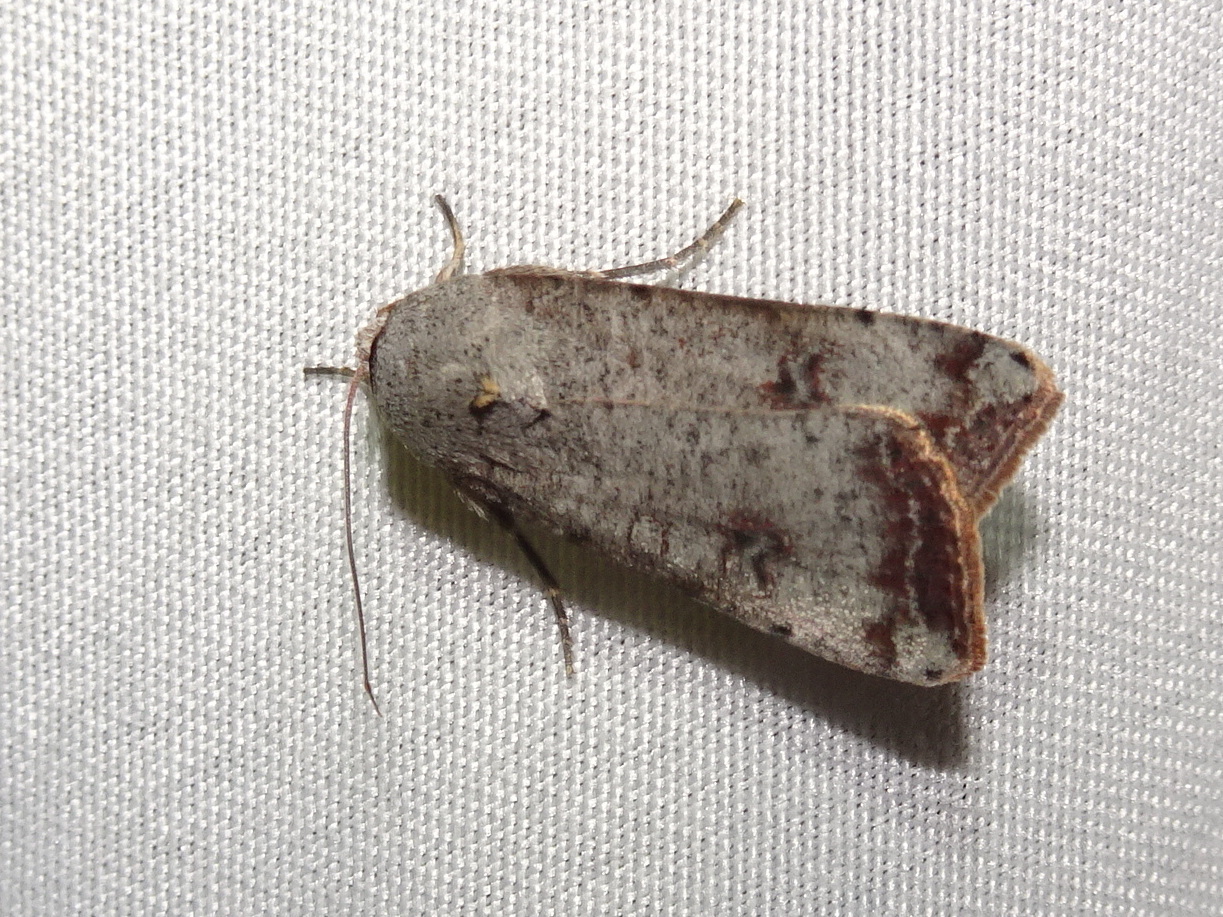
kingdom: Animalia
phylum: Arthropoda
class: Insecta
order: Lepidoptera
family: Noctuidae
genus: Anicla
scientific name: Anicla infecta
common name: Green cutworm
